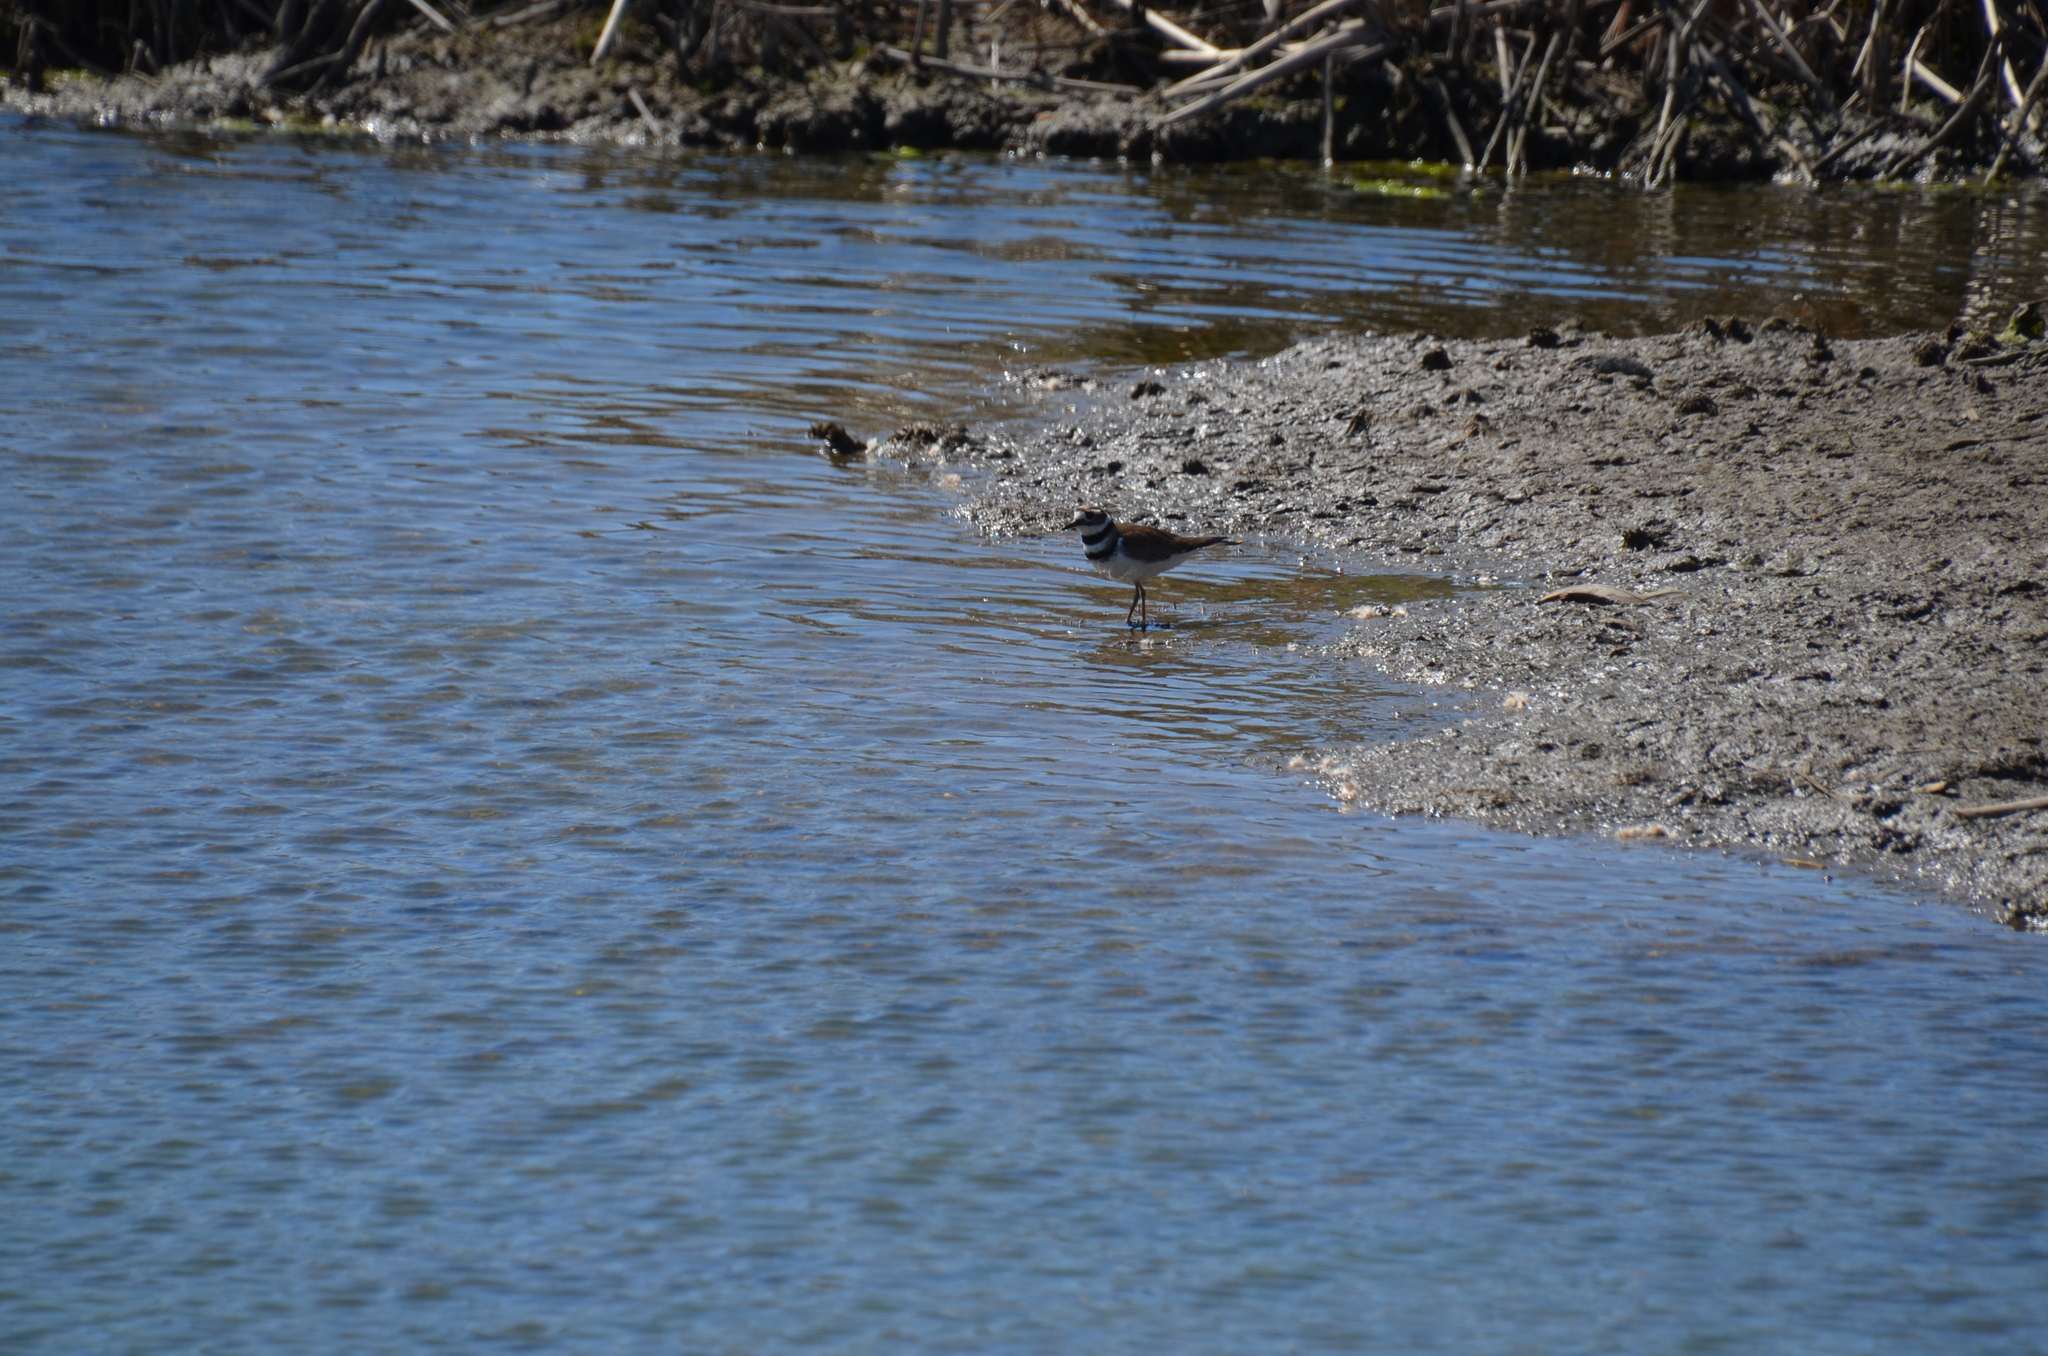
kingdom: Animalia
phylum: Chordata
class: Aves
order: Charadriiformes
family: Charadriidae
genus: Charadrius
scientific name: Charadrius vociferus
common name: Killdeer
